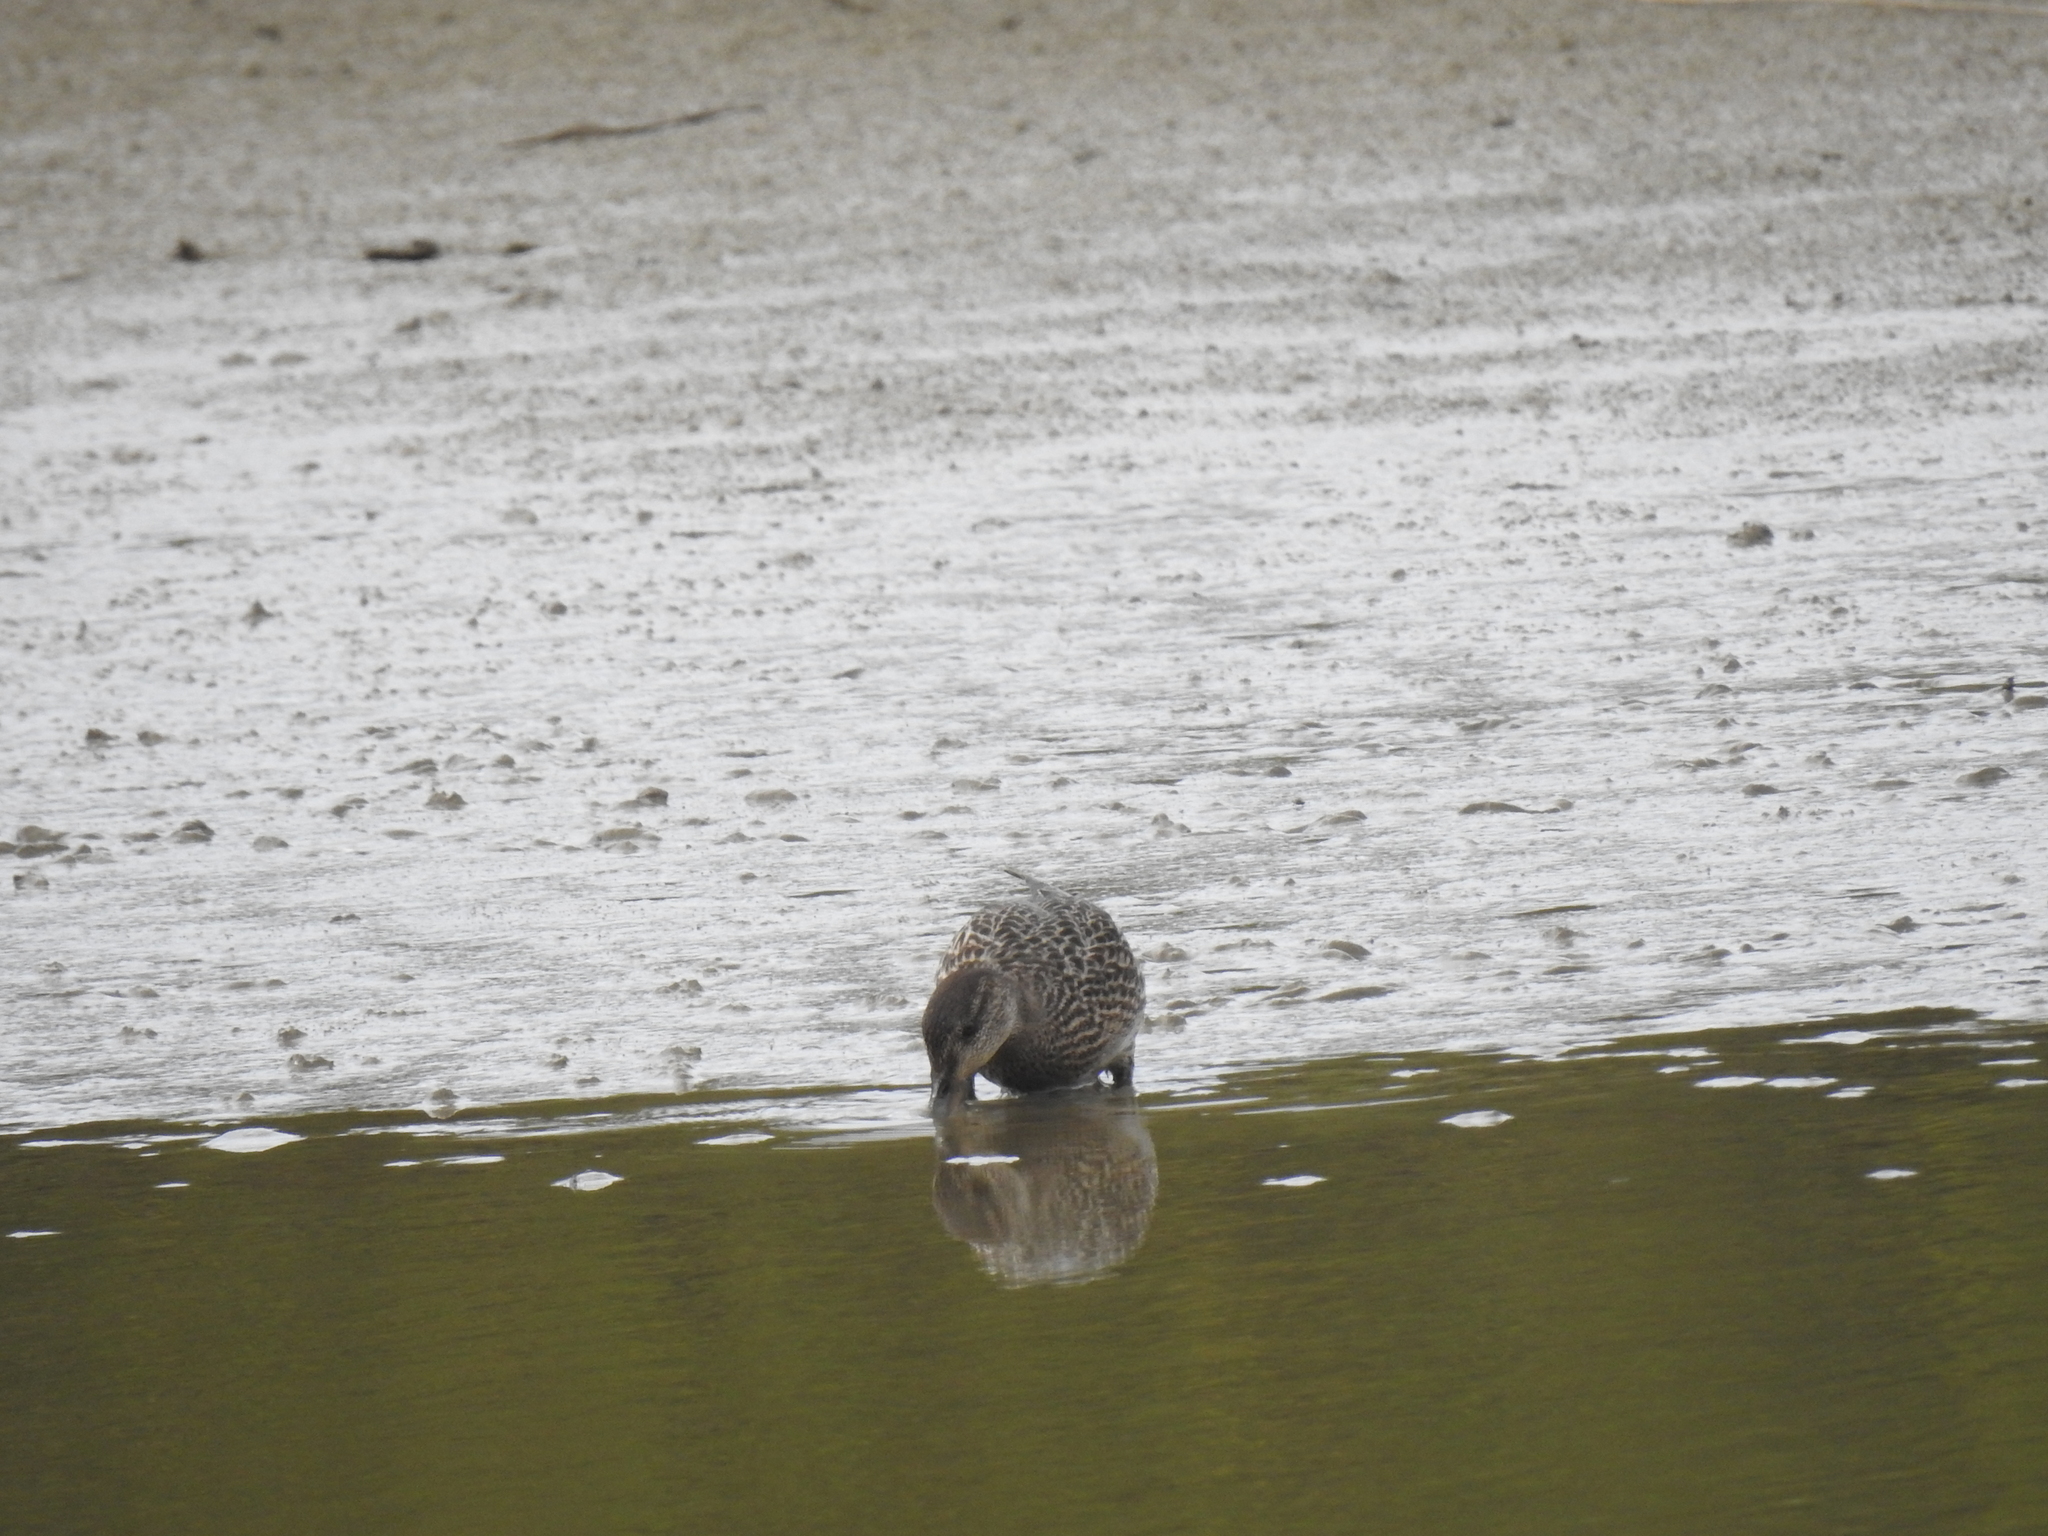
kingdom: Animalia
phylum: Chordata
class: Aves
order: Anseriformes
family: Anatidae
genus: Anas
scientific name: Anas crecca
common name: Eurasian teal
